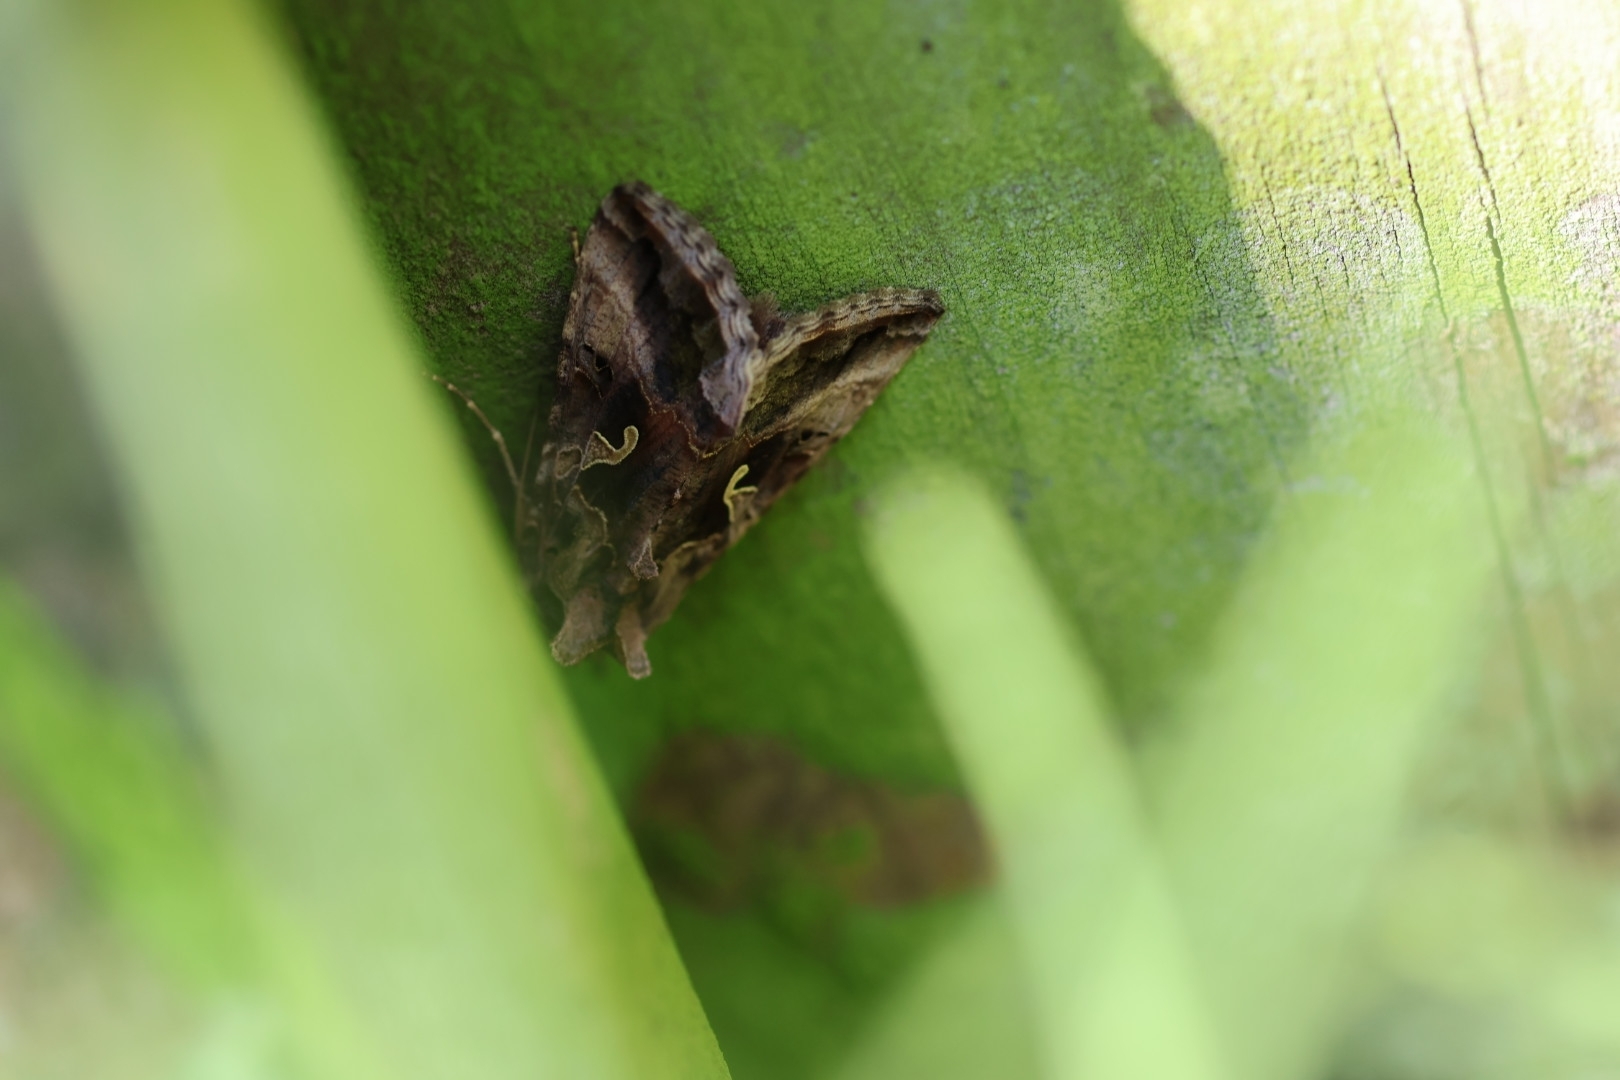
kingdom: Animalia
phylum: Arthropoda
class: Insecta
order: Lepidoptera
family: Noctuidae
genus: Autographa
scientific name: Autographa gamma
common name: Silver y
